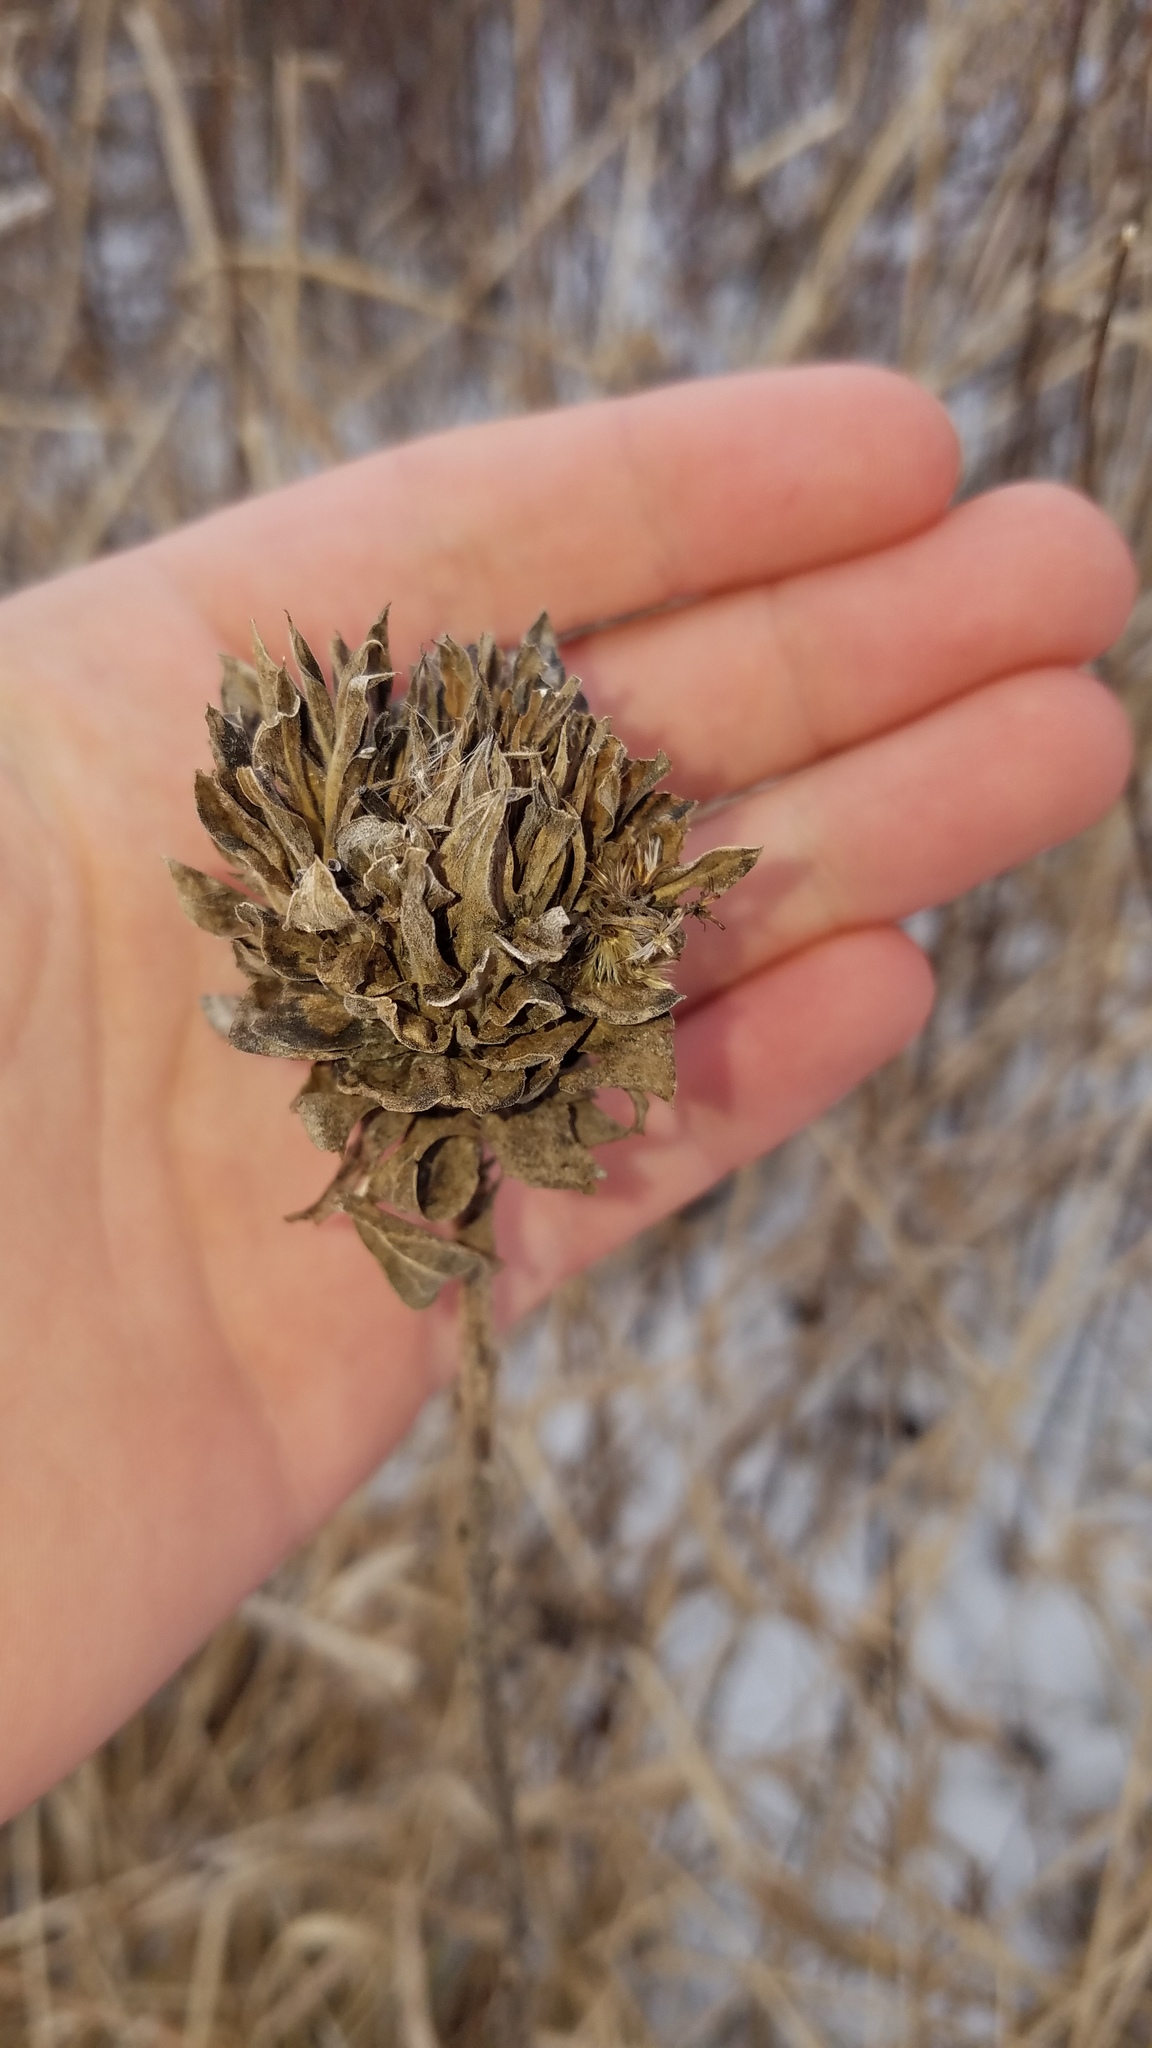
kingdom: Animalia
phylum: Arthropoda
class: Insecta
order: Diptera
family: Cecidomyiidae
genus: Rhopalomyia
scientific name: Rhopalomyia solidaginis
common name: Goldenrod bunch gall midge
